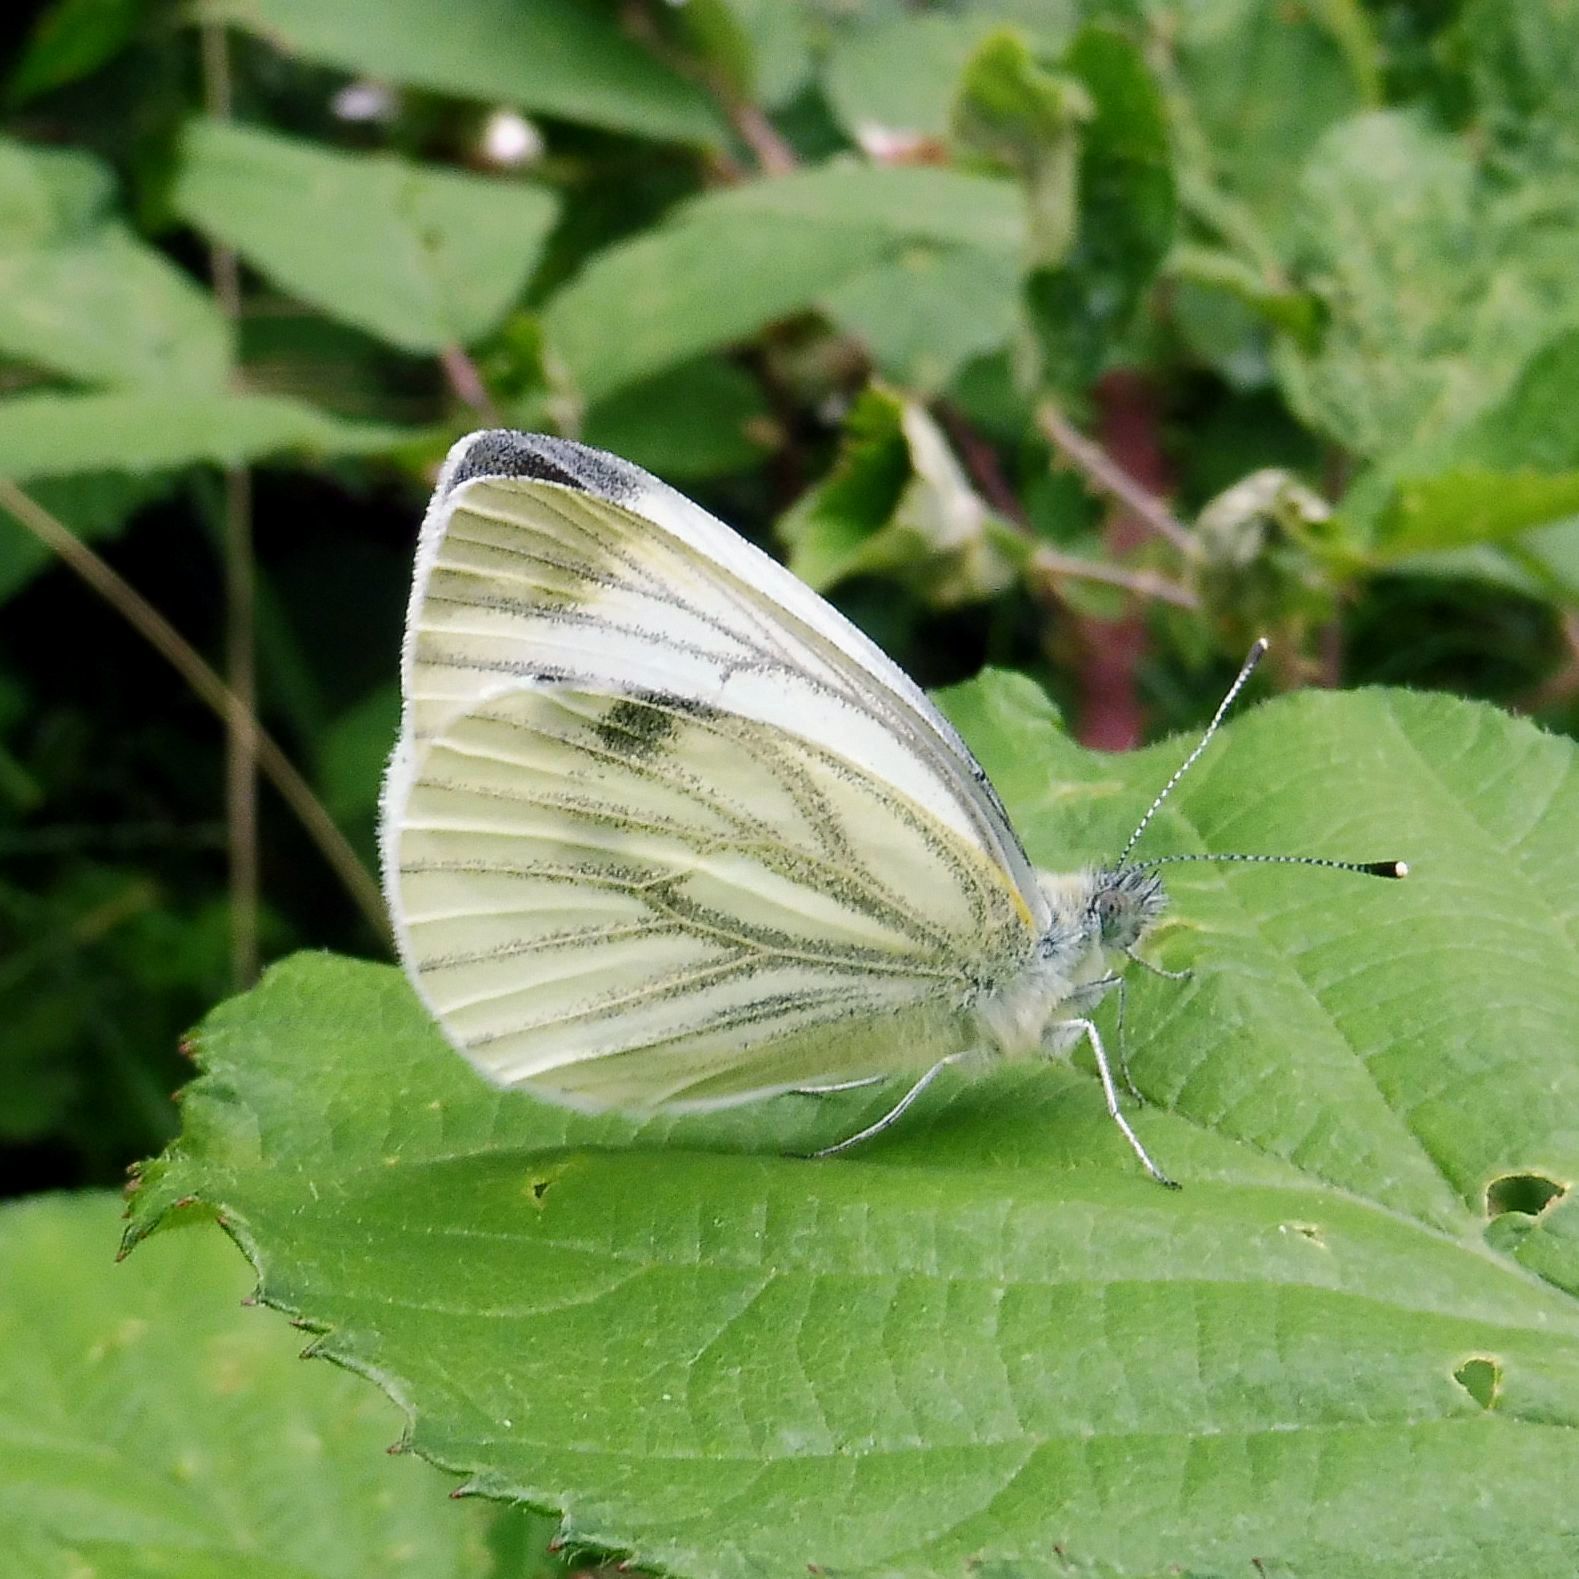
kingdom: Animalia
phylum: Arthropoda
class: Insecta
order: Lepidoptera
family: Pieridae
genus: Pieris
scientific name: Pieris napi
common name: Green-veined white
